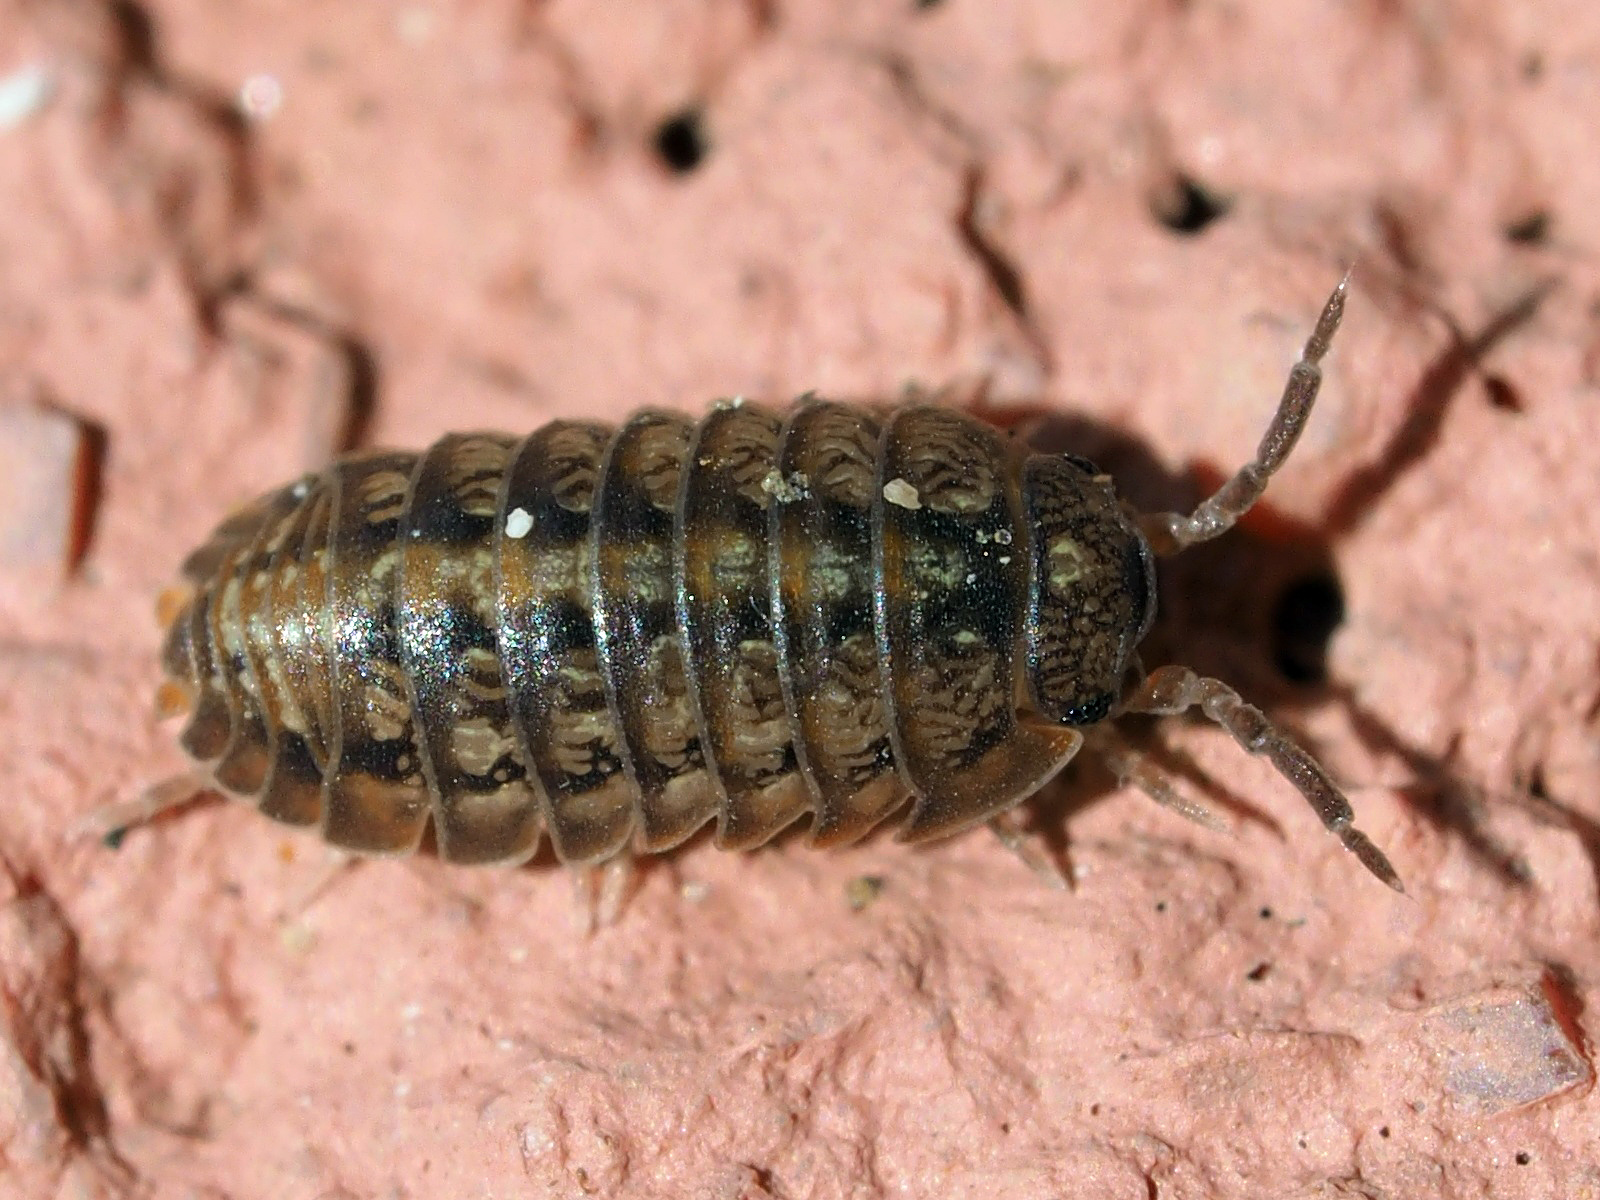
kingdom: Animalia
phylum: Arthropoda
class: Malacostraca
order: Isopoda
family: Armadillidiidae
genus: Armadillidium
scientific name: Armadillidium decorum
